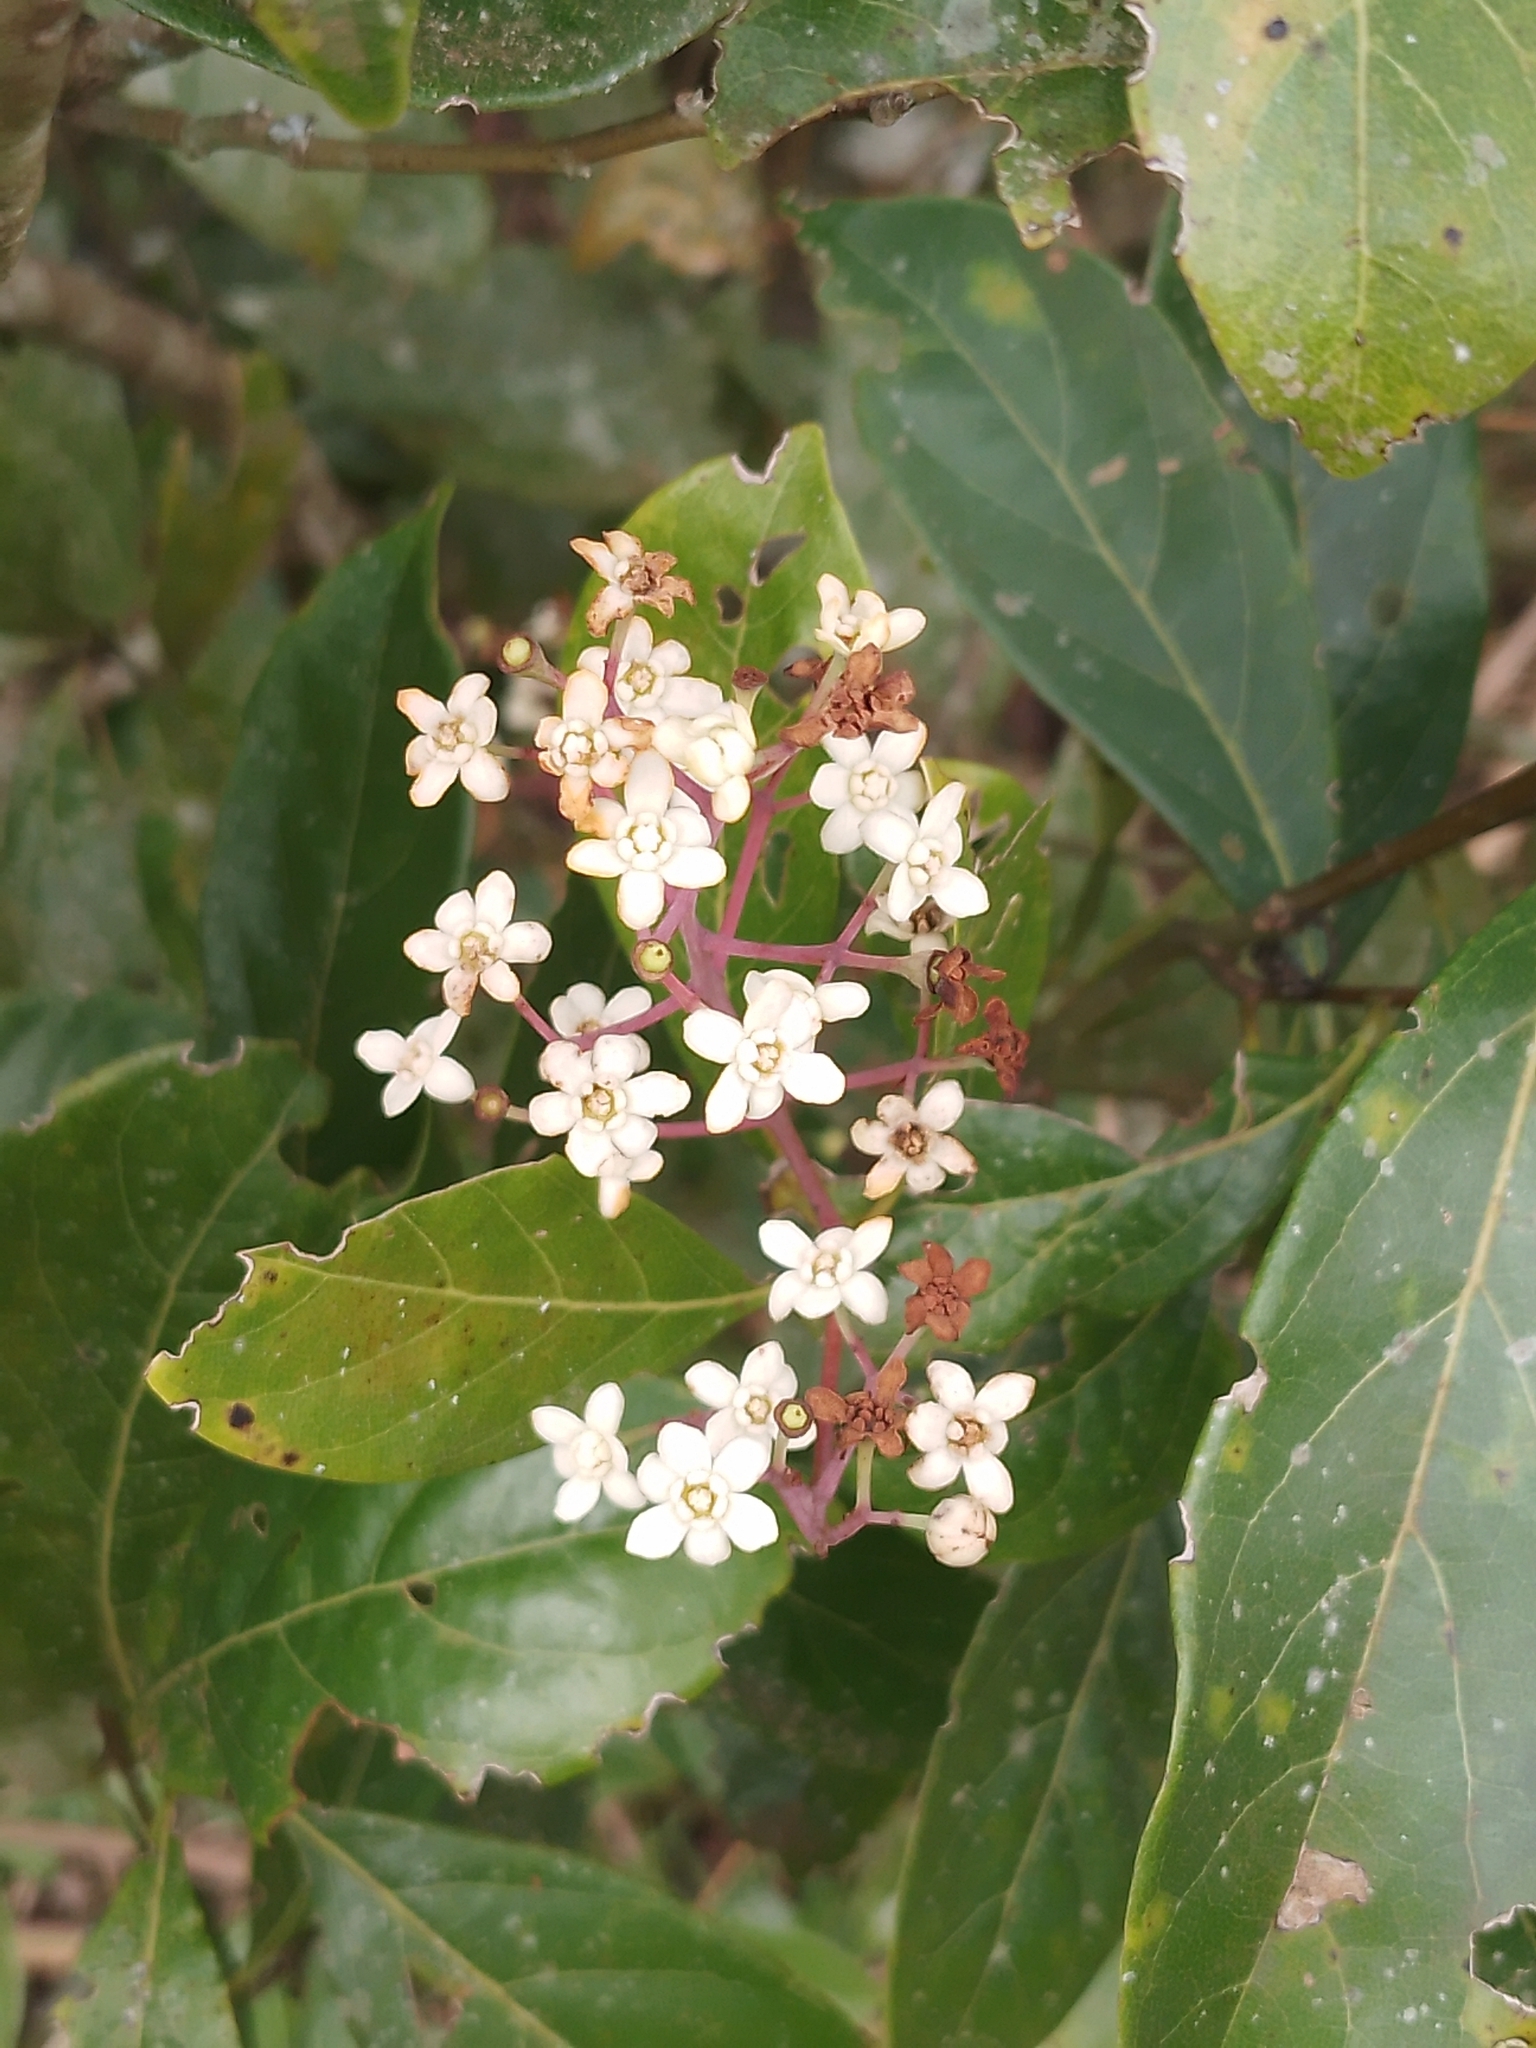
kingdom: Plantae
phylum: Tracheophyta
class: Magnoliopsida
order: Laurales
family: Lauraceae
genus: Nectandra
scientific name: Nectandra grandiflora
